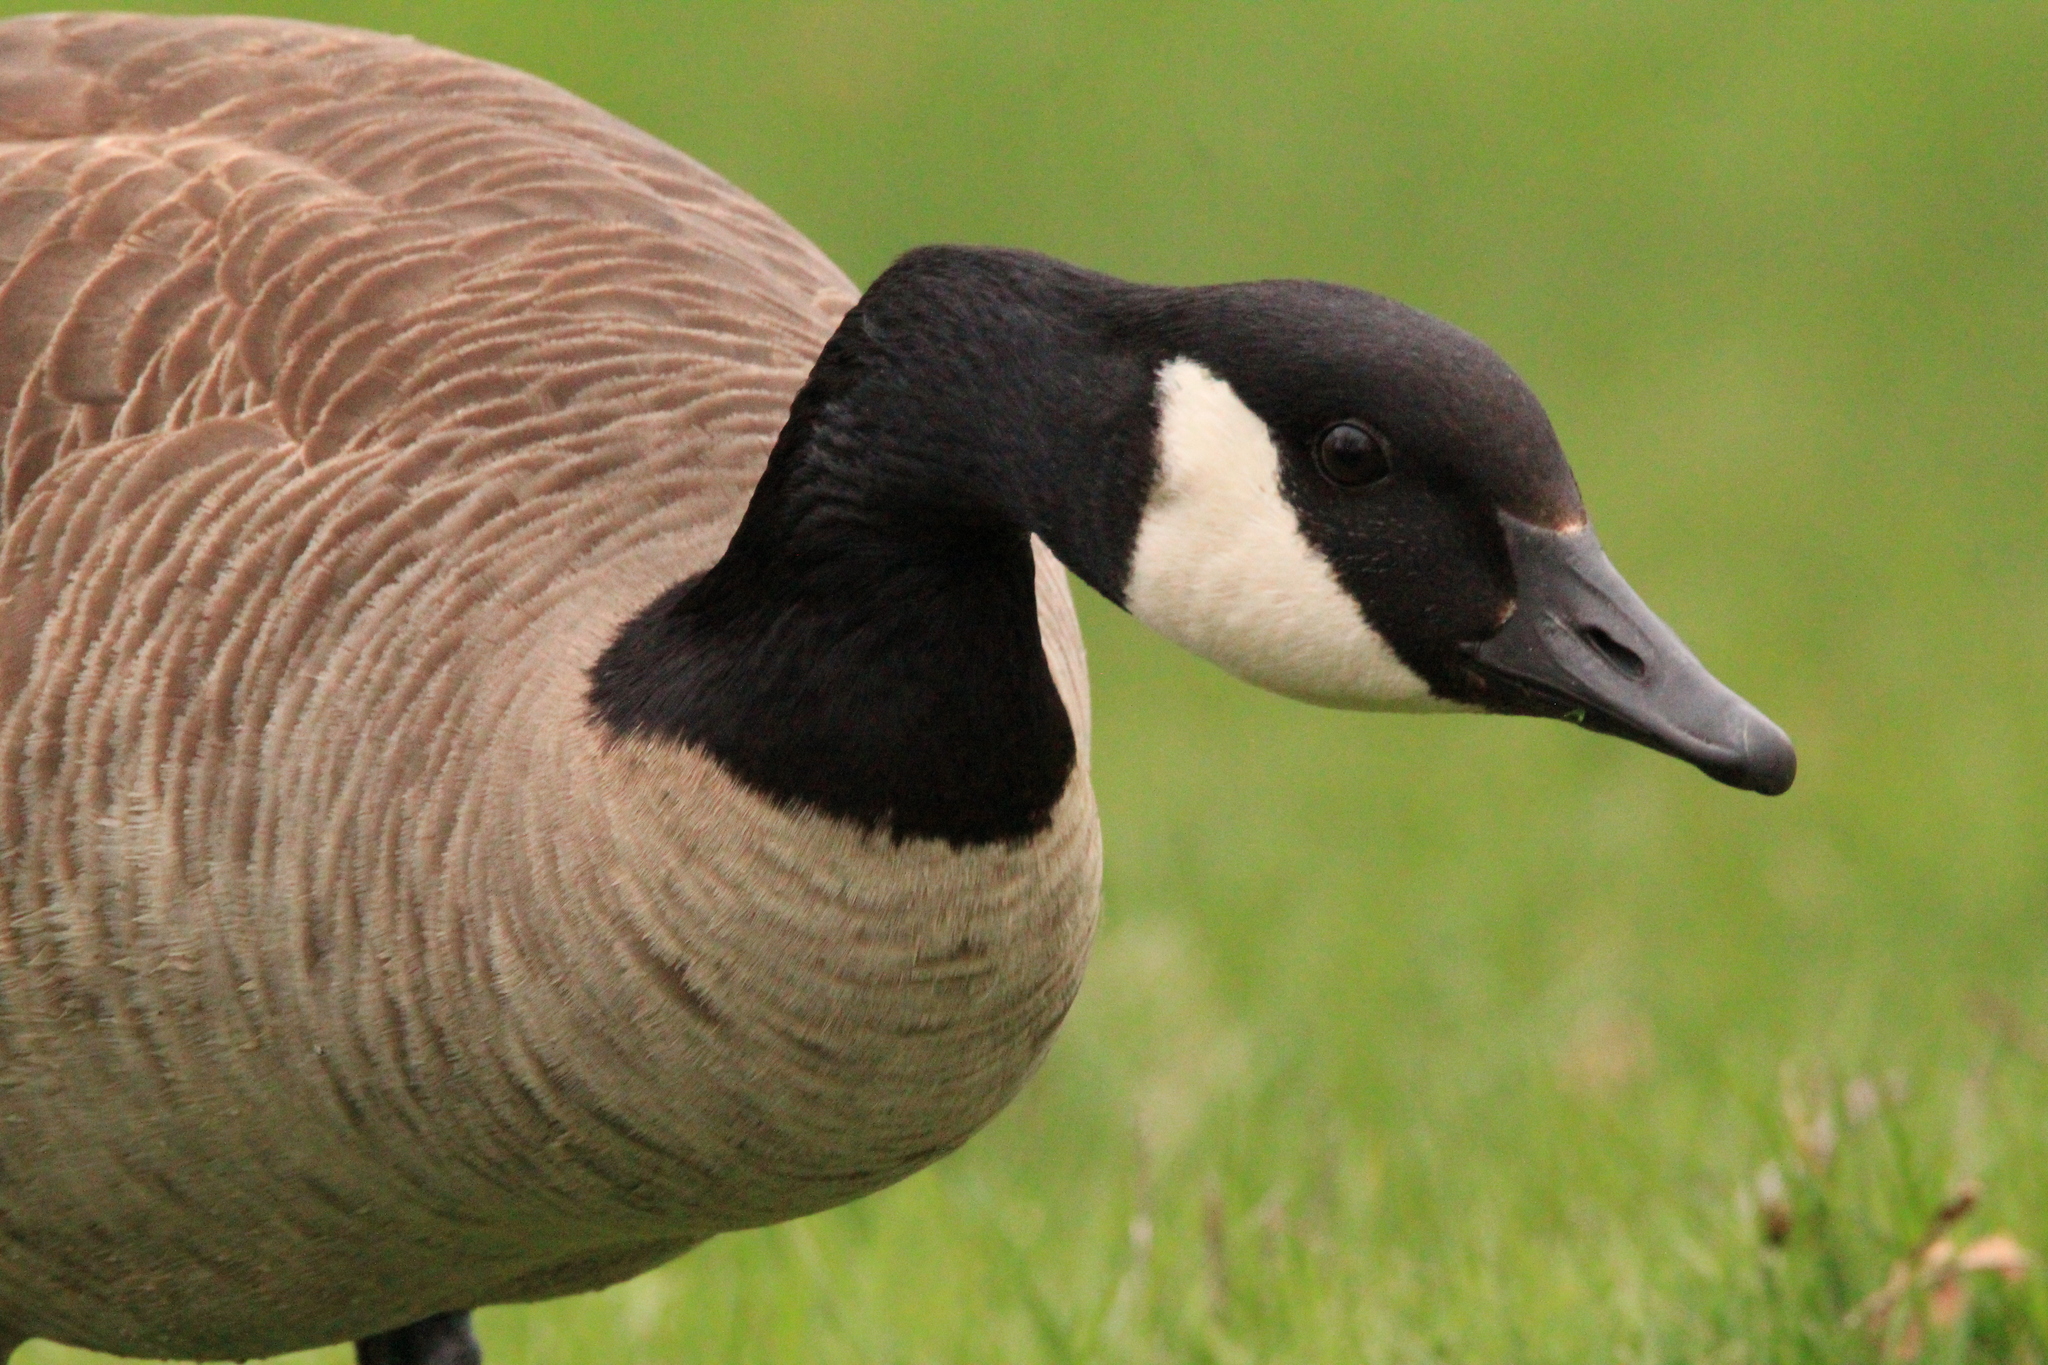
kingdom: Animalia
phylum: Chordata
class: Aves
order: Anseriformes
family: Anatidae
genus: Branta
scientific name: Branta canadensis
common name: Canada goose
